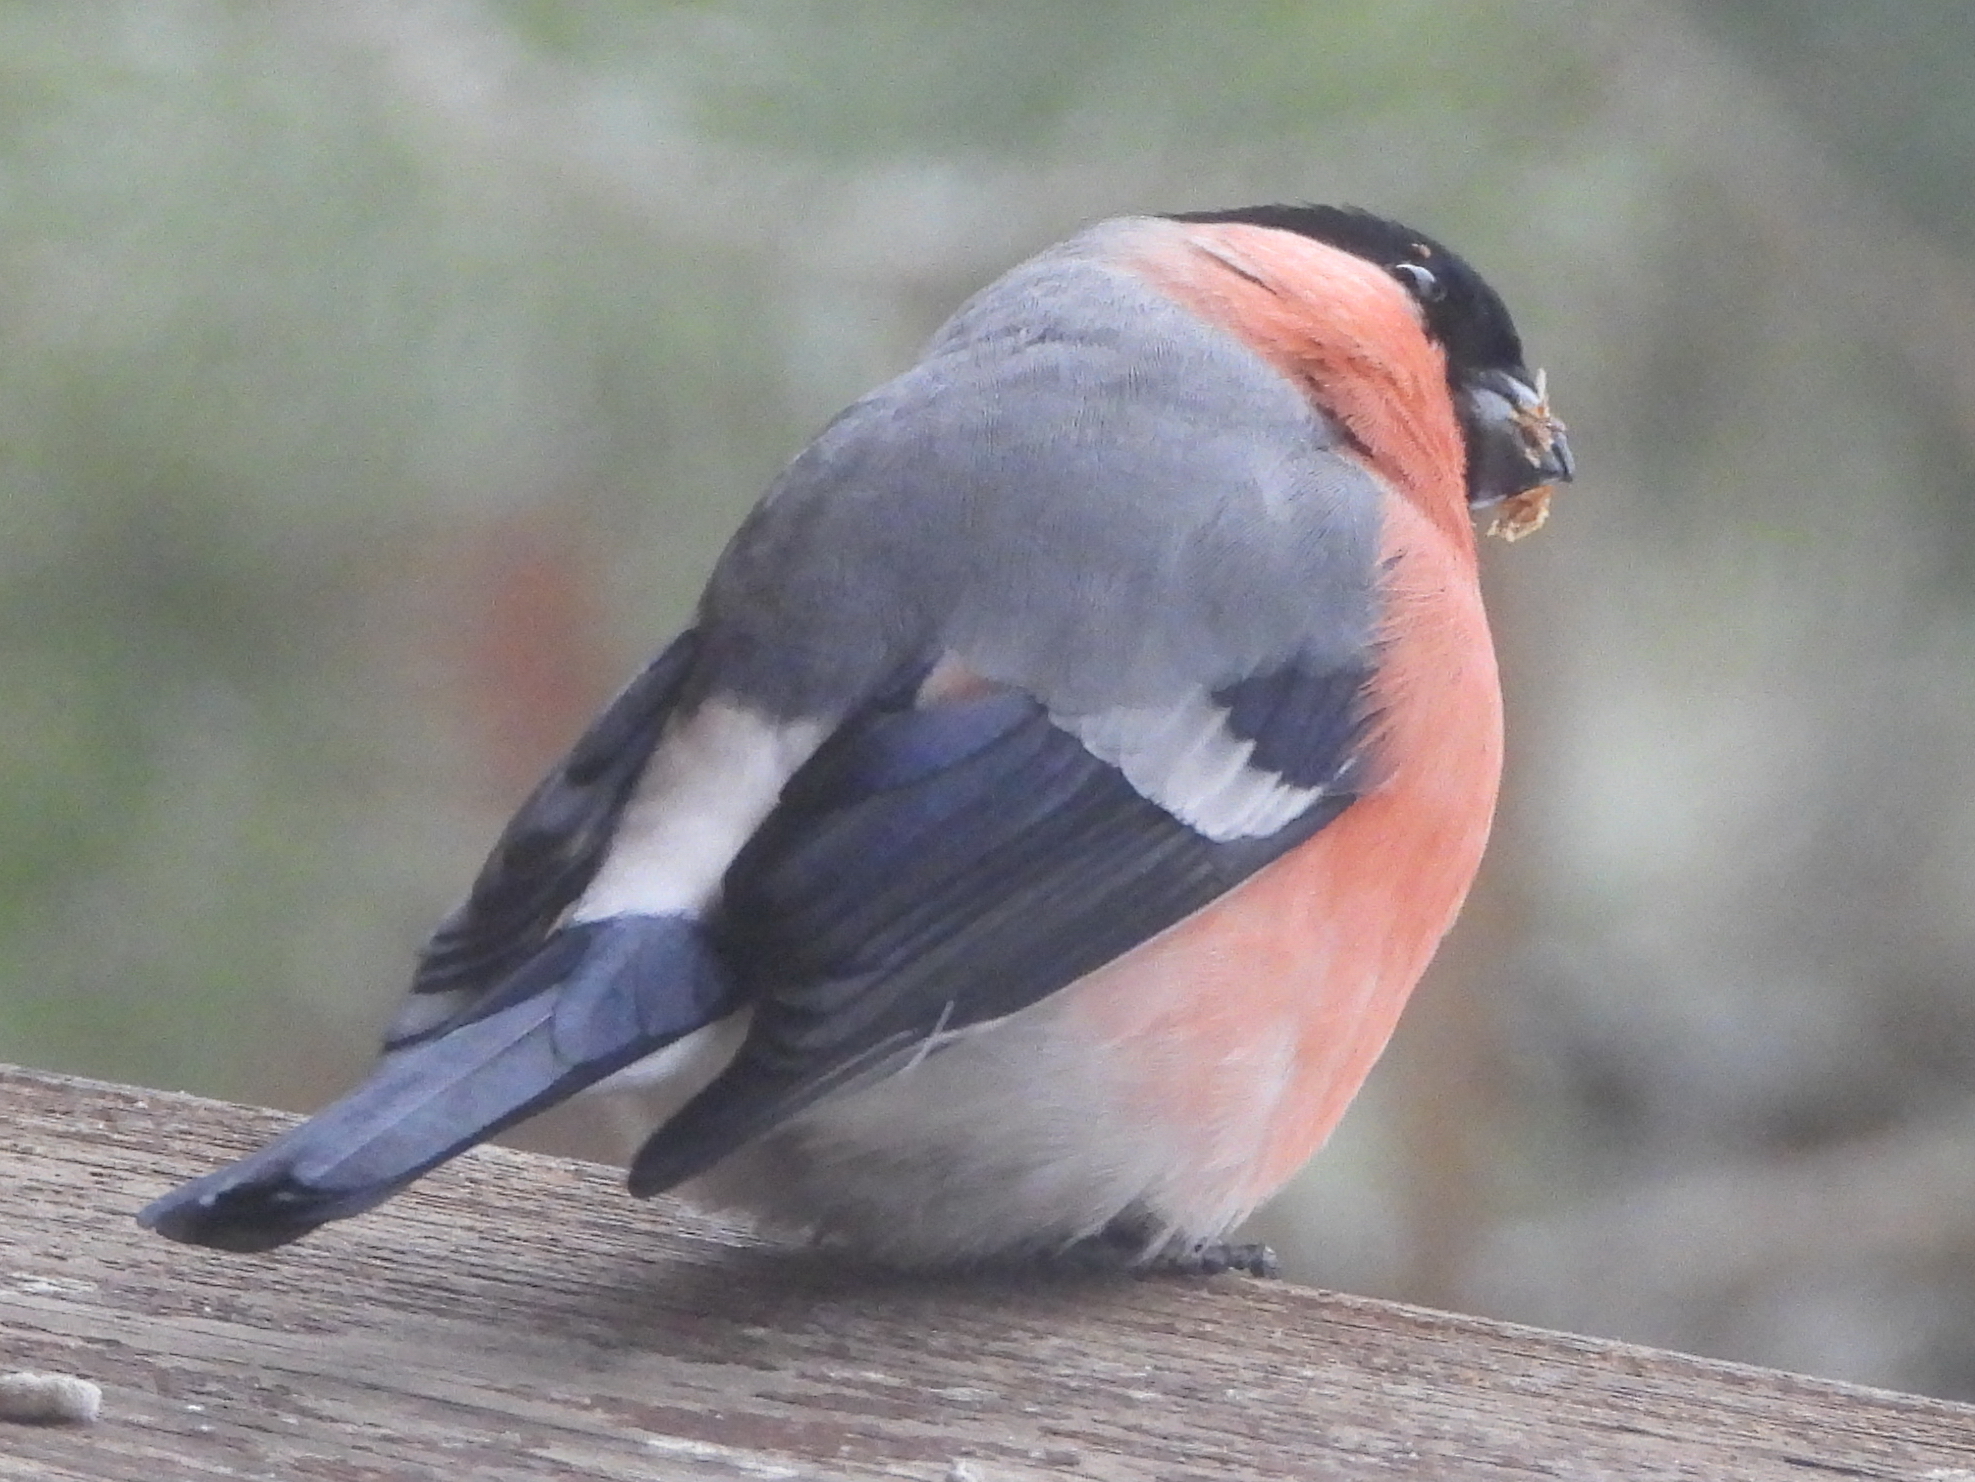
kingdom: Animalia
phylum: Chordata
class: Aves
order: Passeriformes
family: Fringillidae
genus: Pyrrhula
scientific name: Pyrrhula pyrrhula
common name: Eurasian bullfinch
